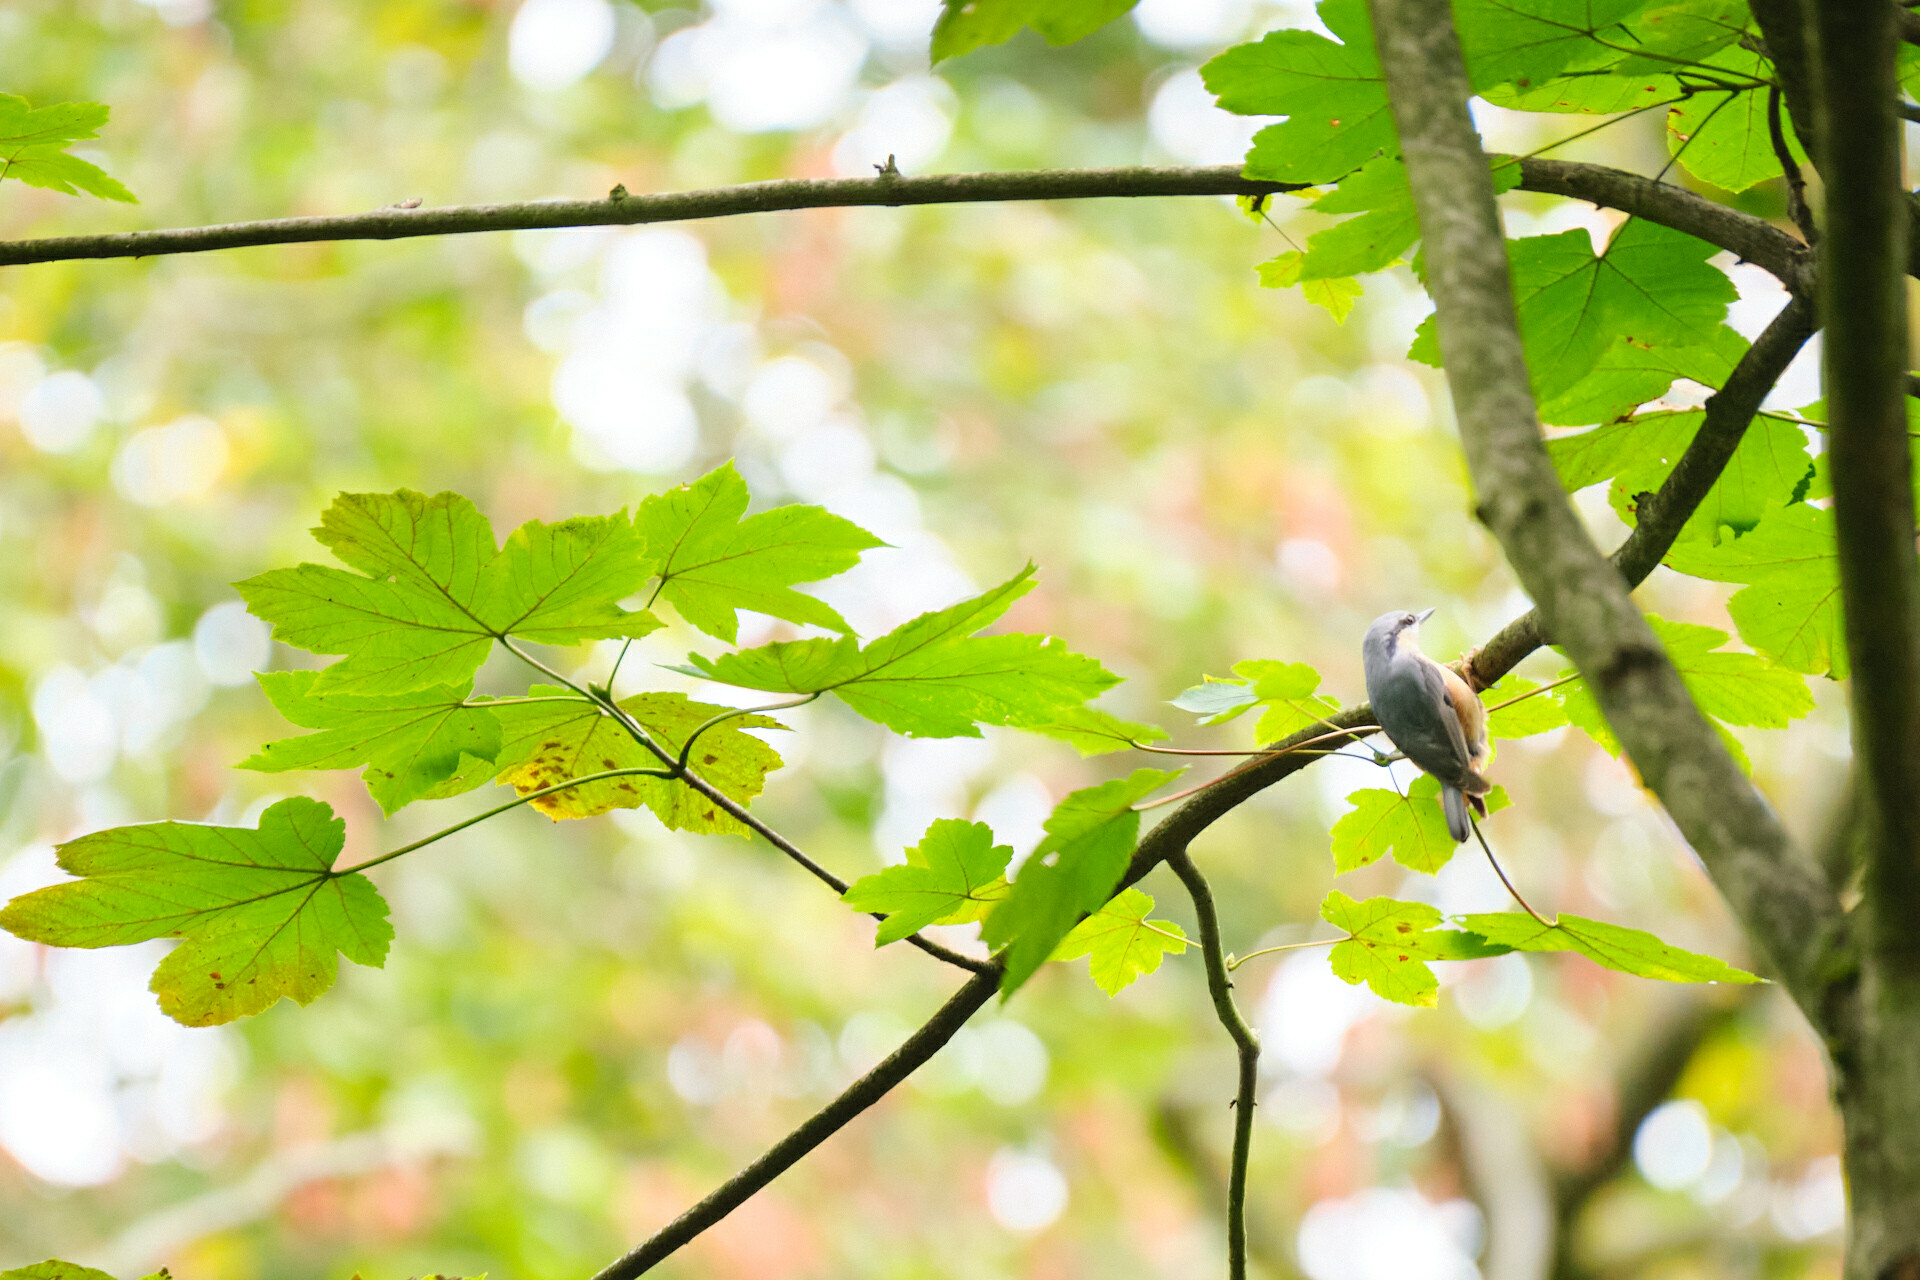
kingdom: Animalia
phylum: Chordata
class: Aves
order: Passeriformes
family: Sittidae
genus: Sitta
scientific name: Sitta europaea
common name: Eurasian nuthatch
